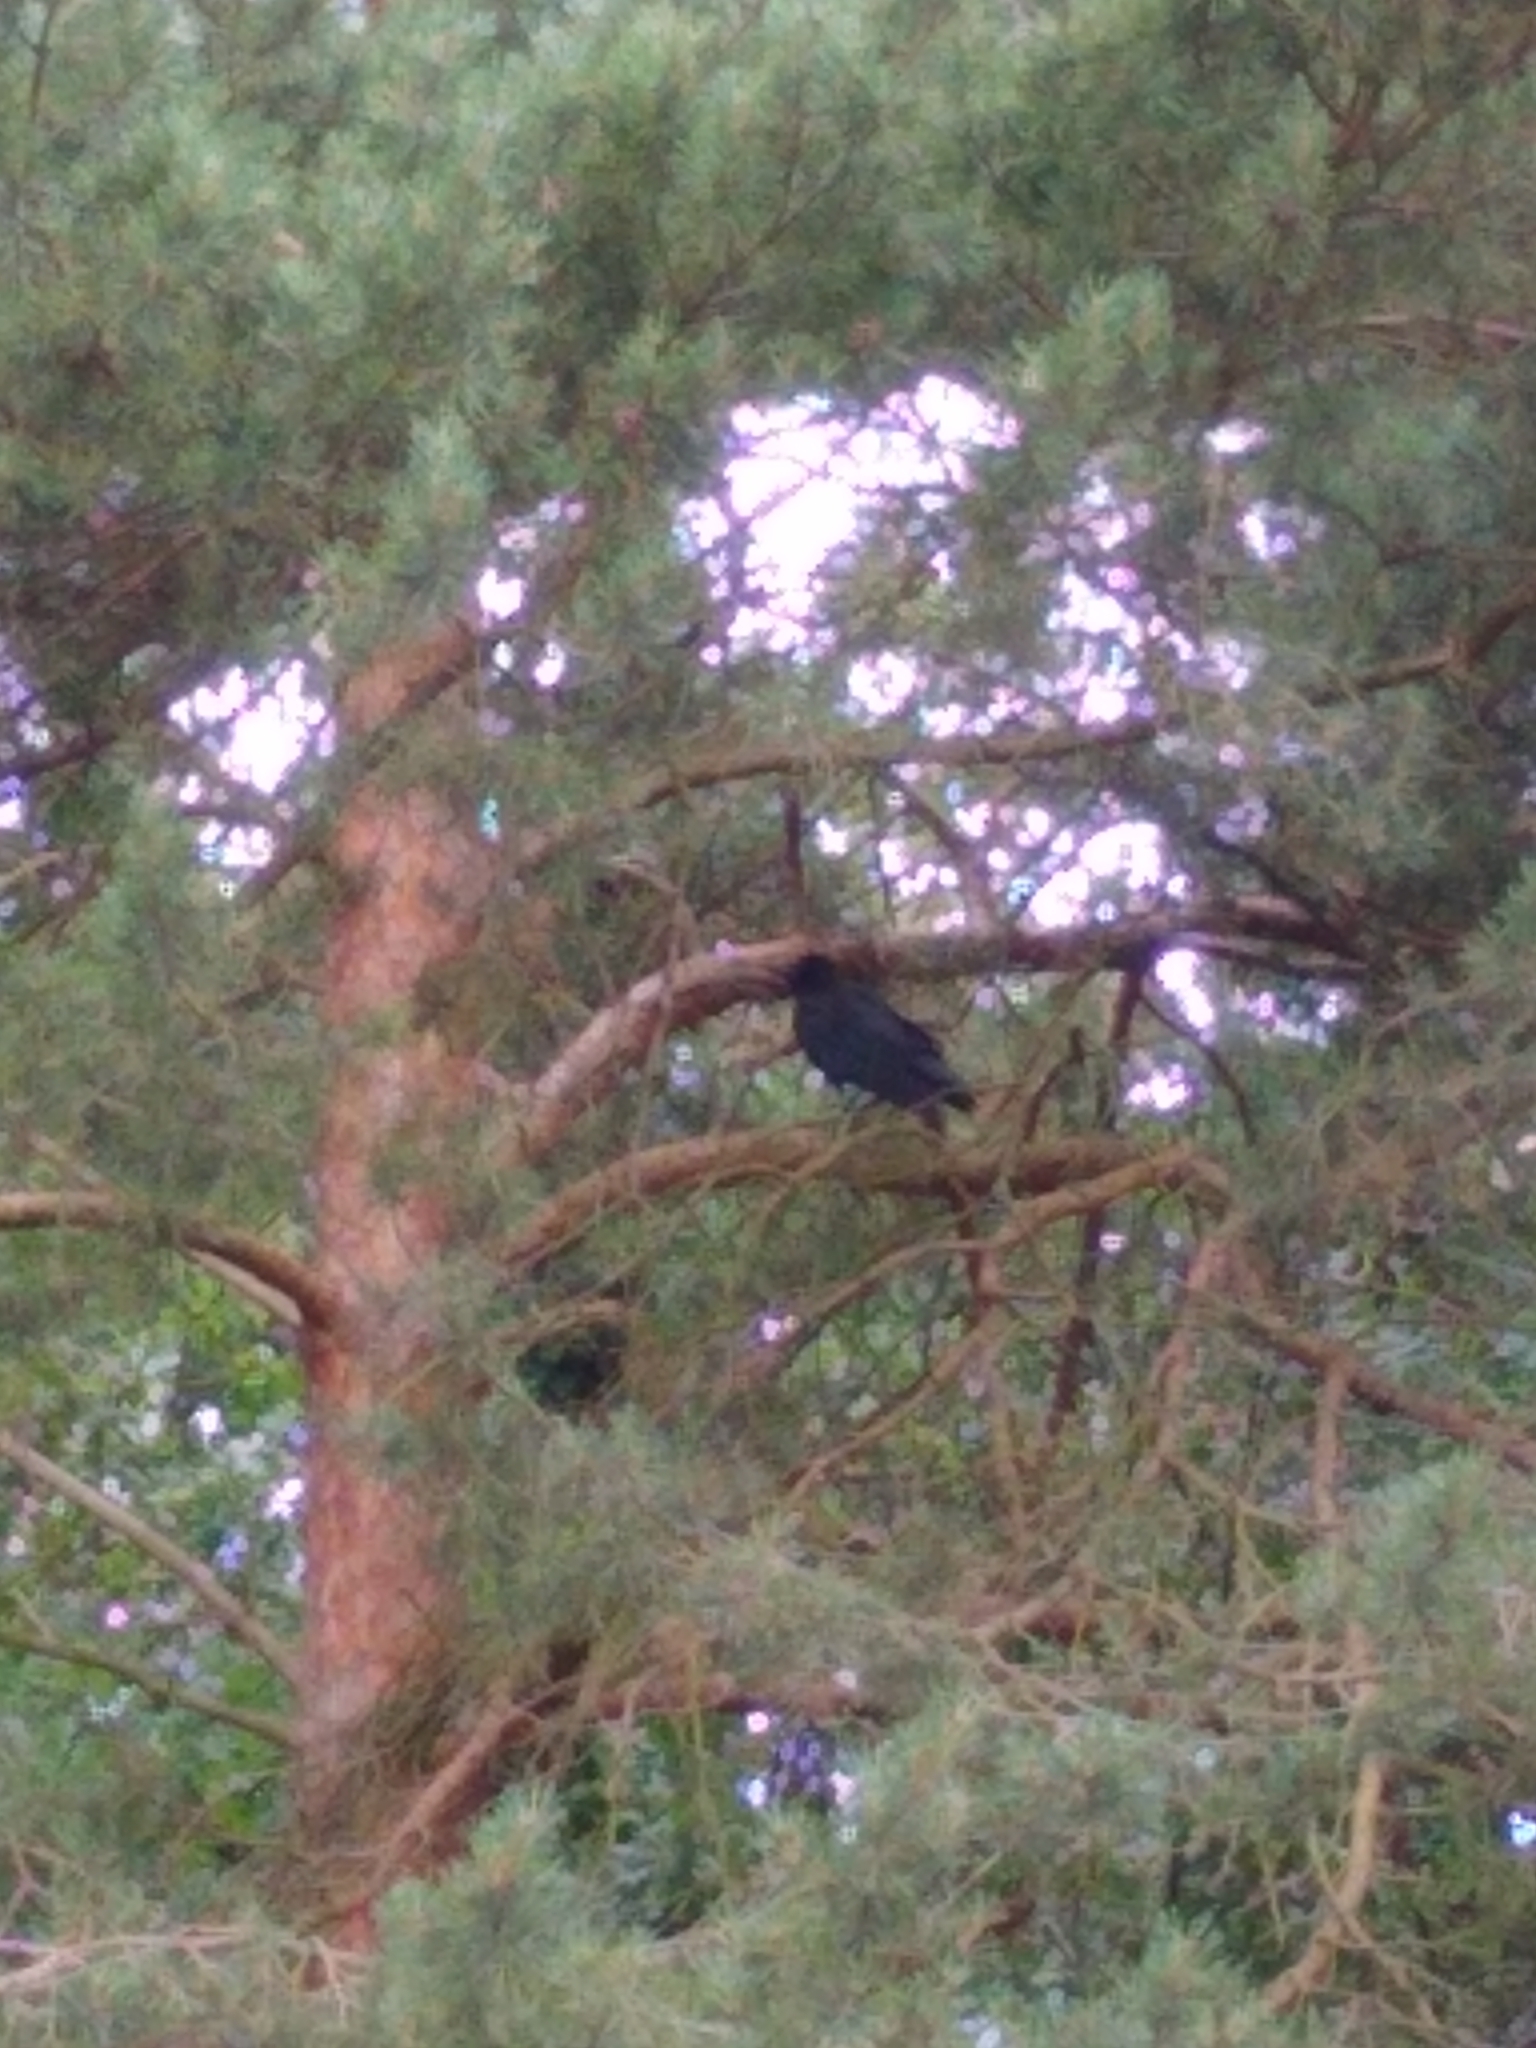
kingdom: Animalia
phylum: Chordata
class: Aves
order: Passeriformes
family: Corvidae
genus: Corvus
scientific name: Corvus corone
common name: Carrion crow
